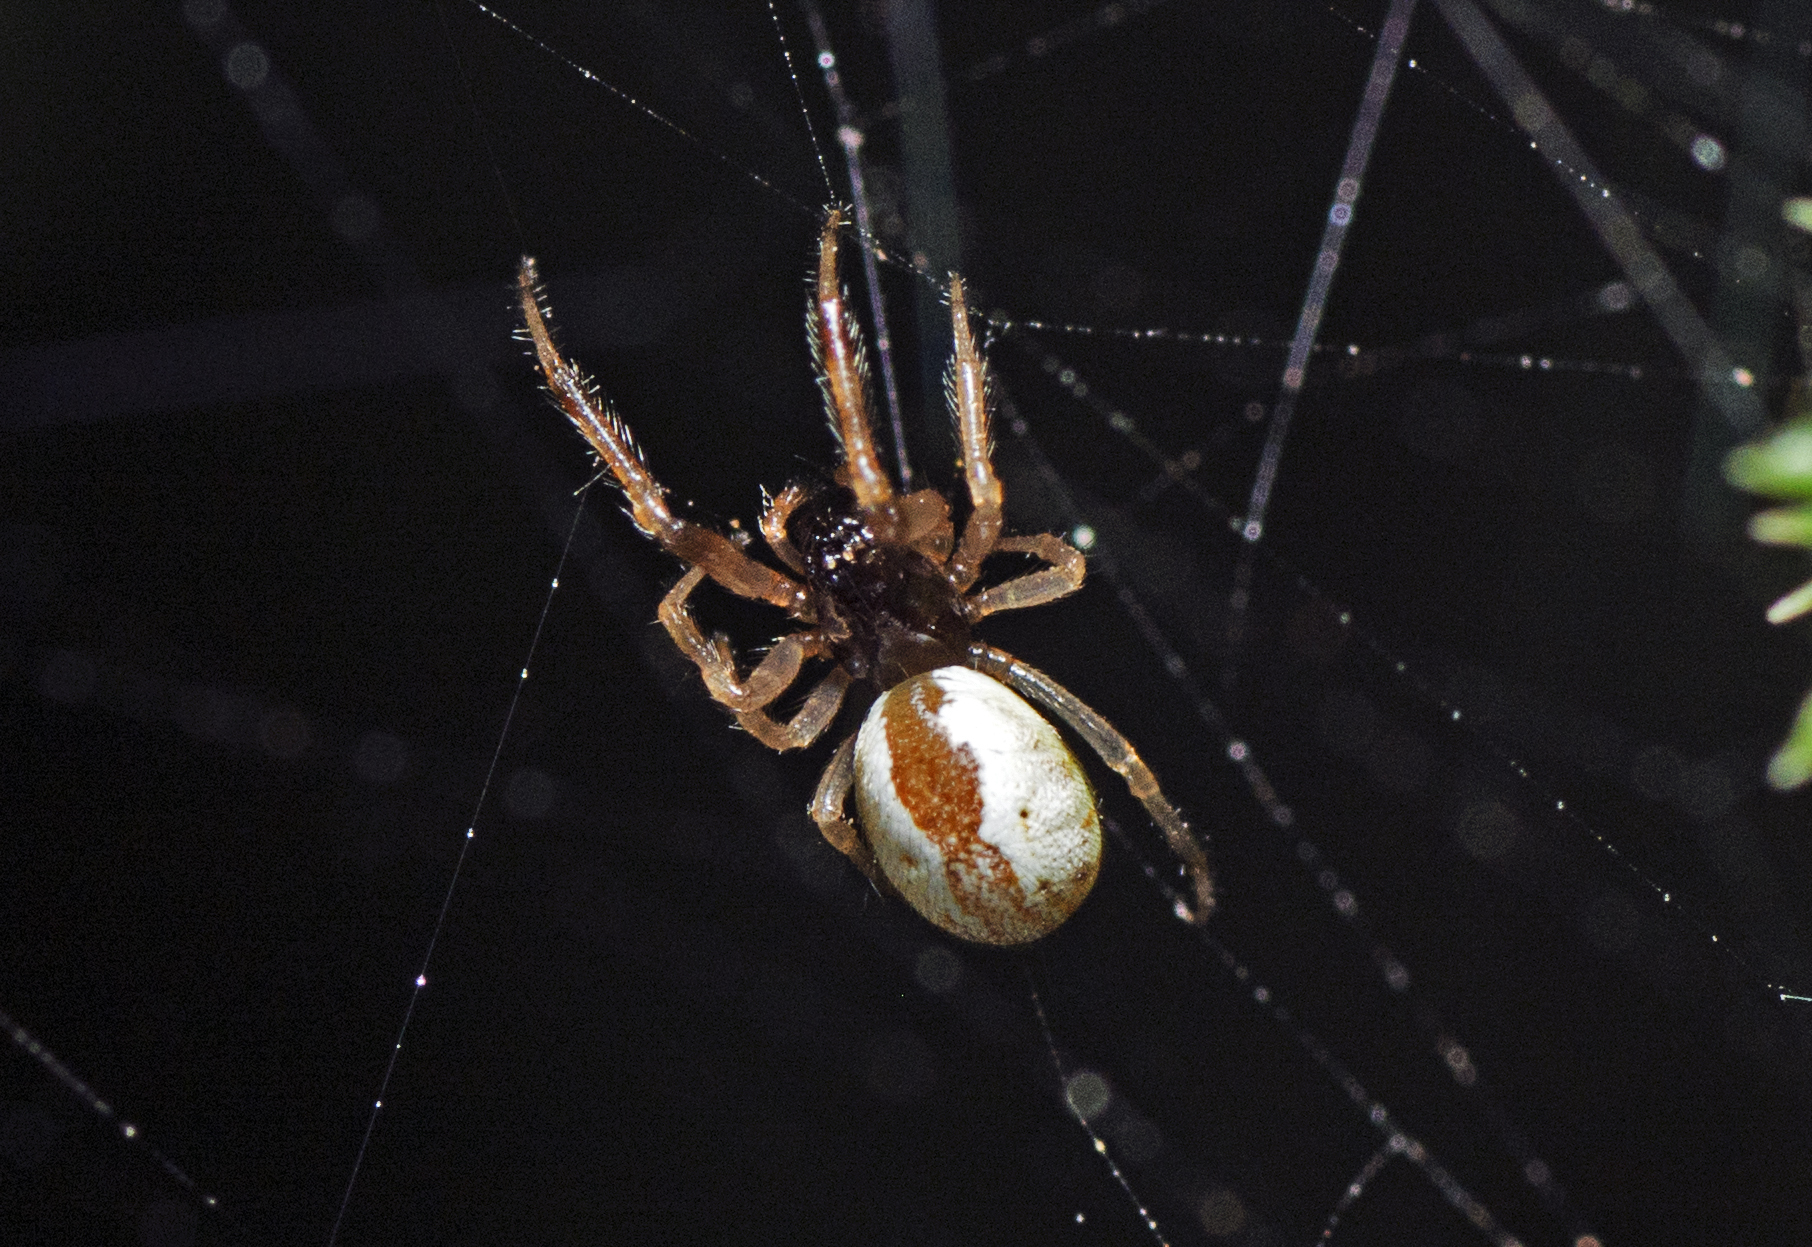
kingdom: Animalia
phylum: Arthropoda
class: Arachnida
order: Araneae
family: Theridiidae
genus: Theridion
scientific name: Theridion theridioides
